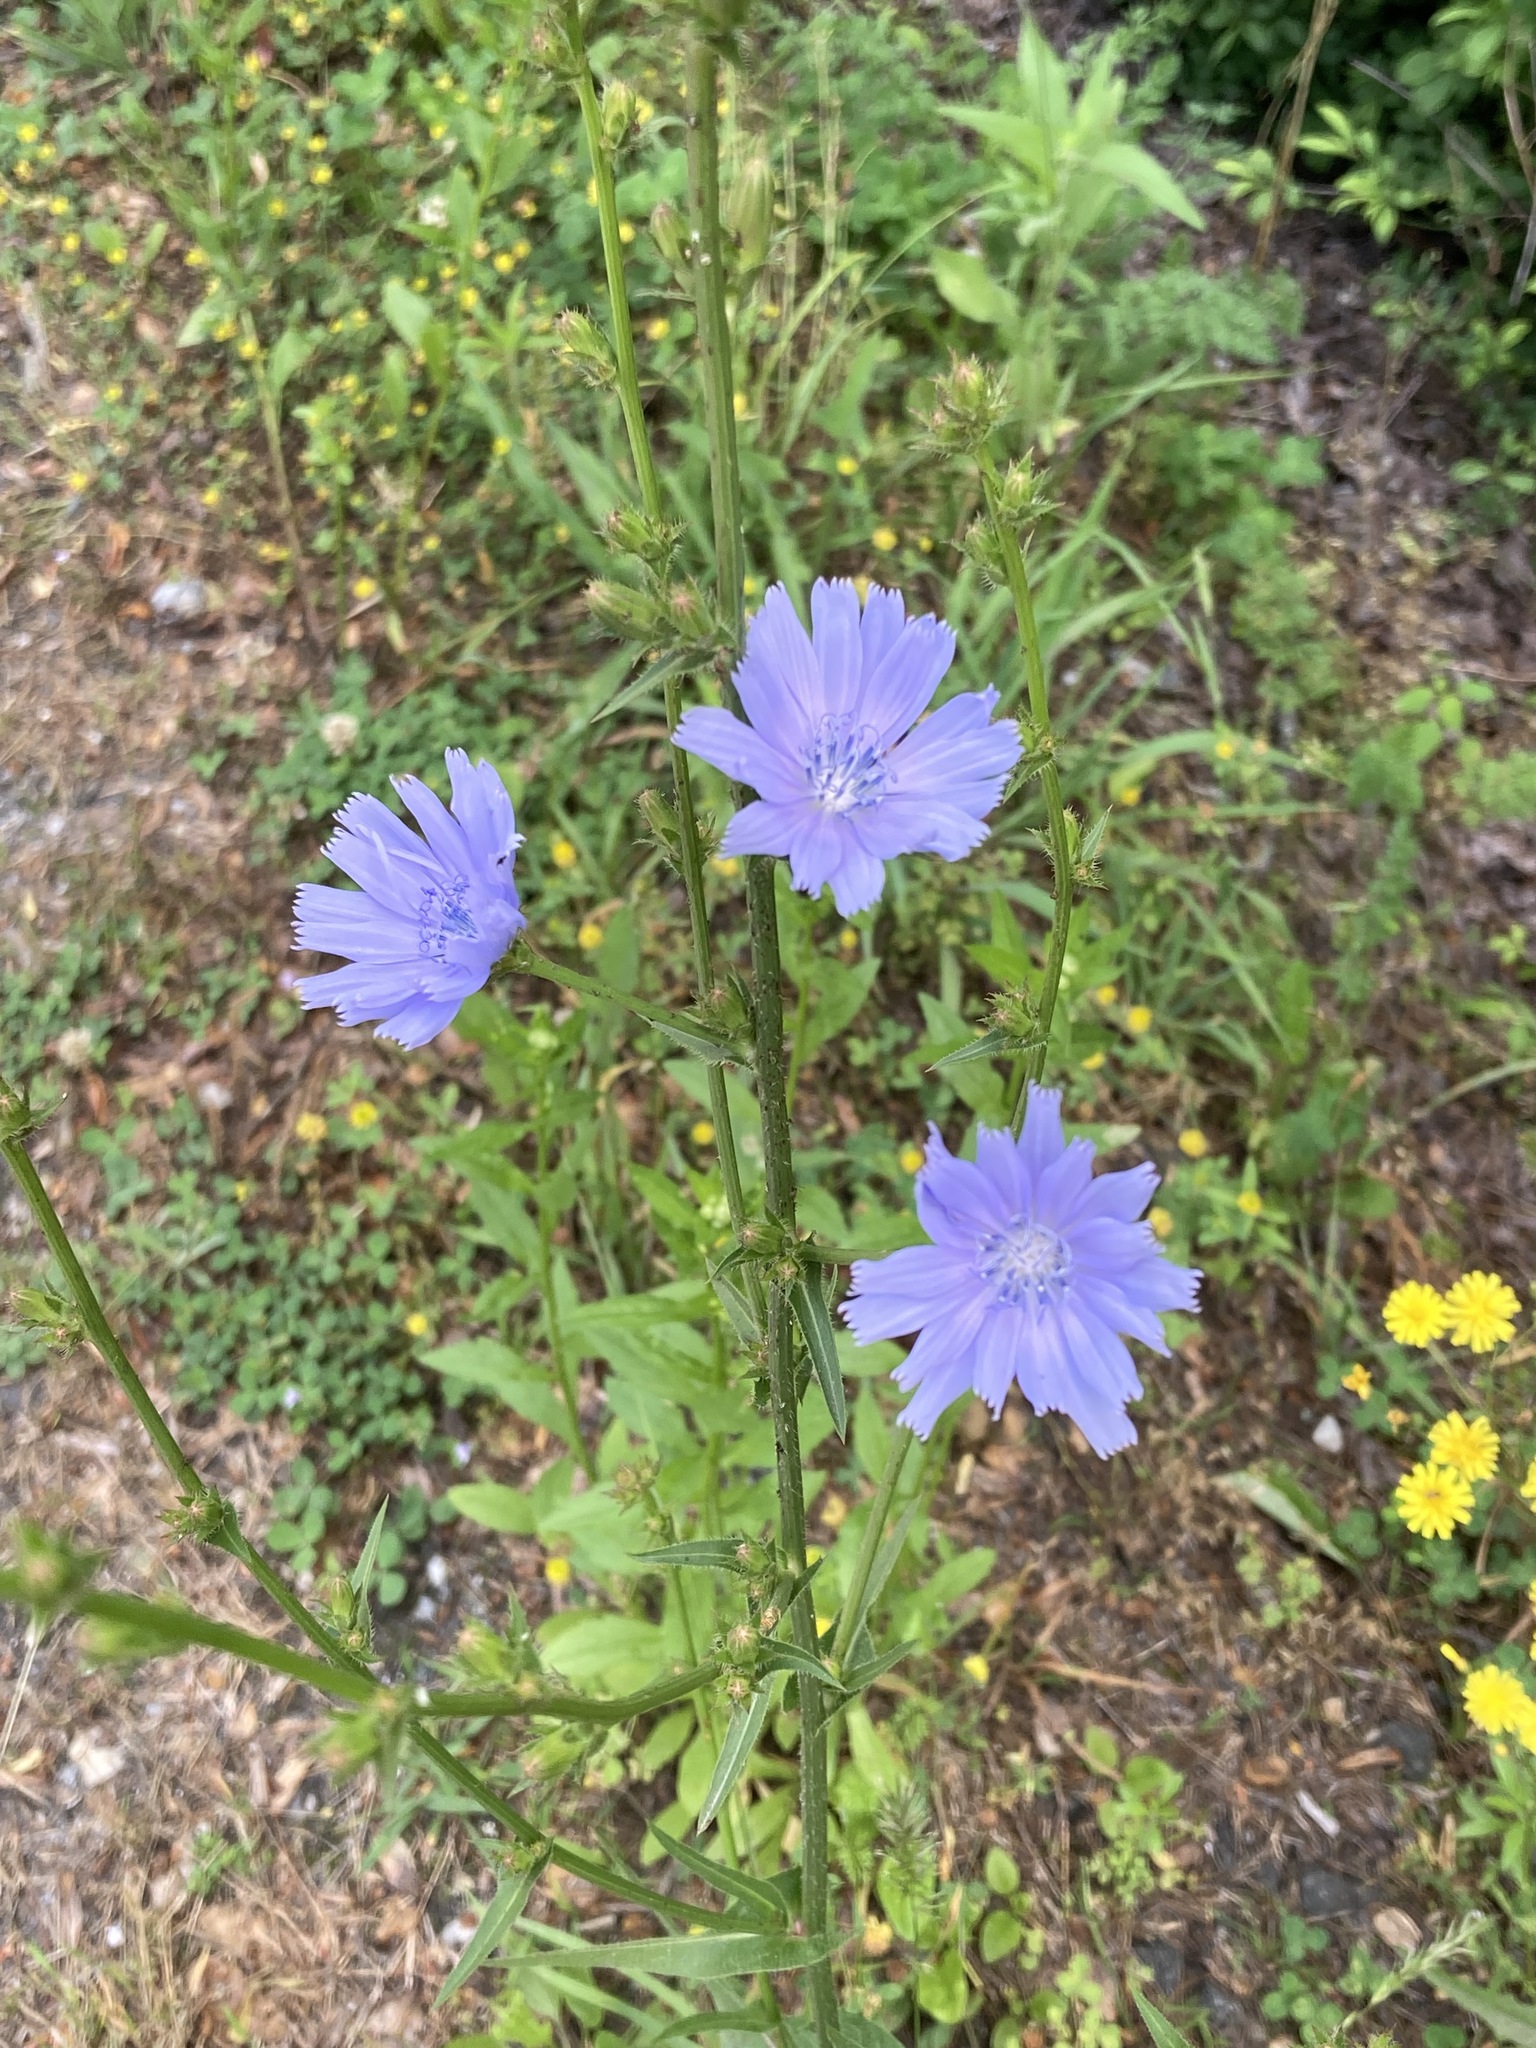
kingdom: Plantae
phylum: Tracheophyta
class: Magnoliopsida
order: Asterales
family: Asteraceae
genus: Cichorium
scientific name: Cichorium intybus
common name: Chicory
